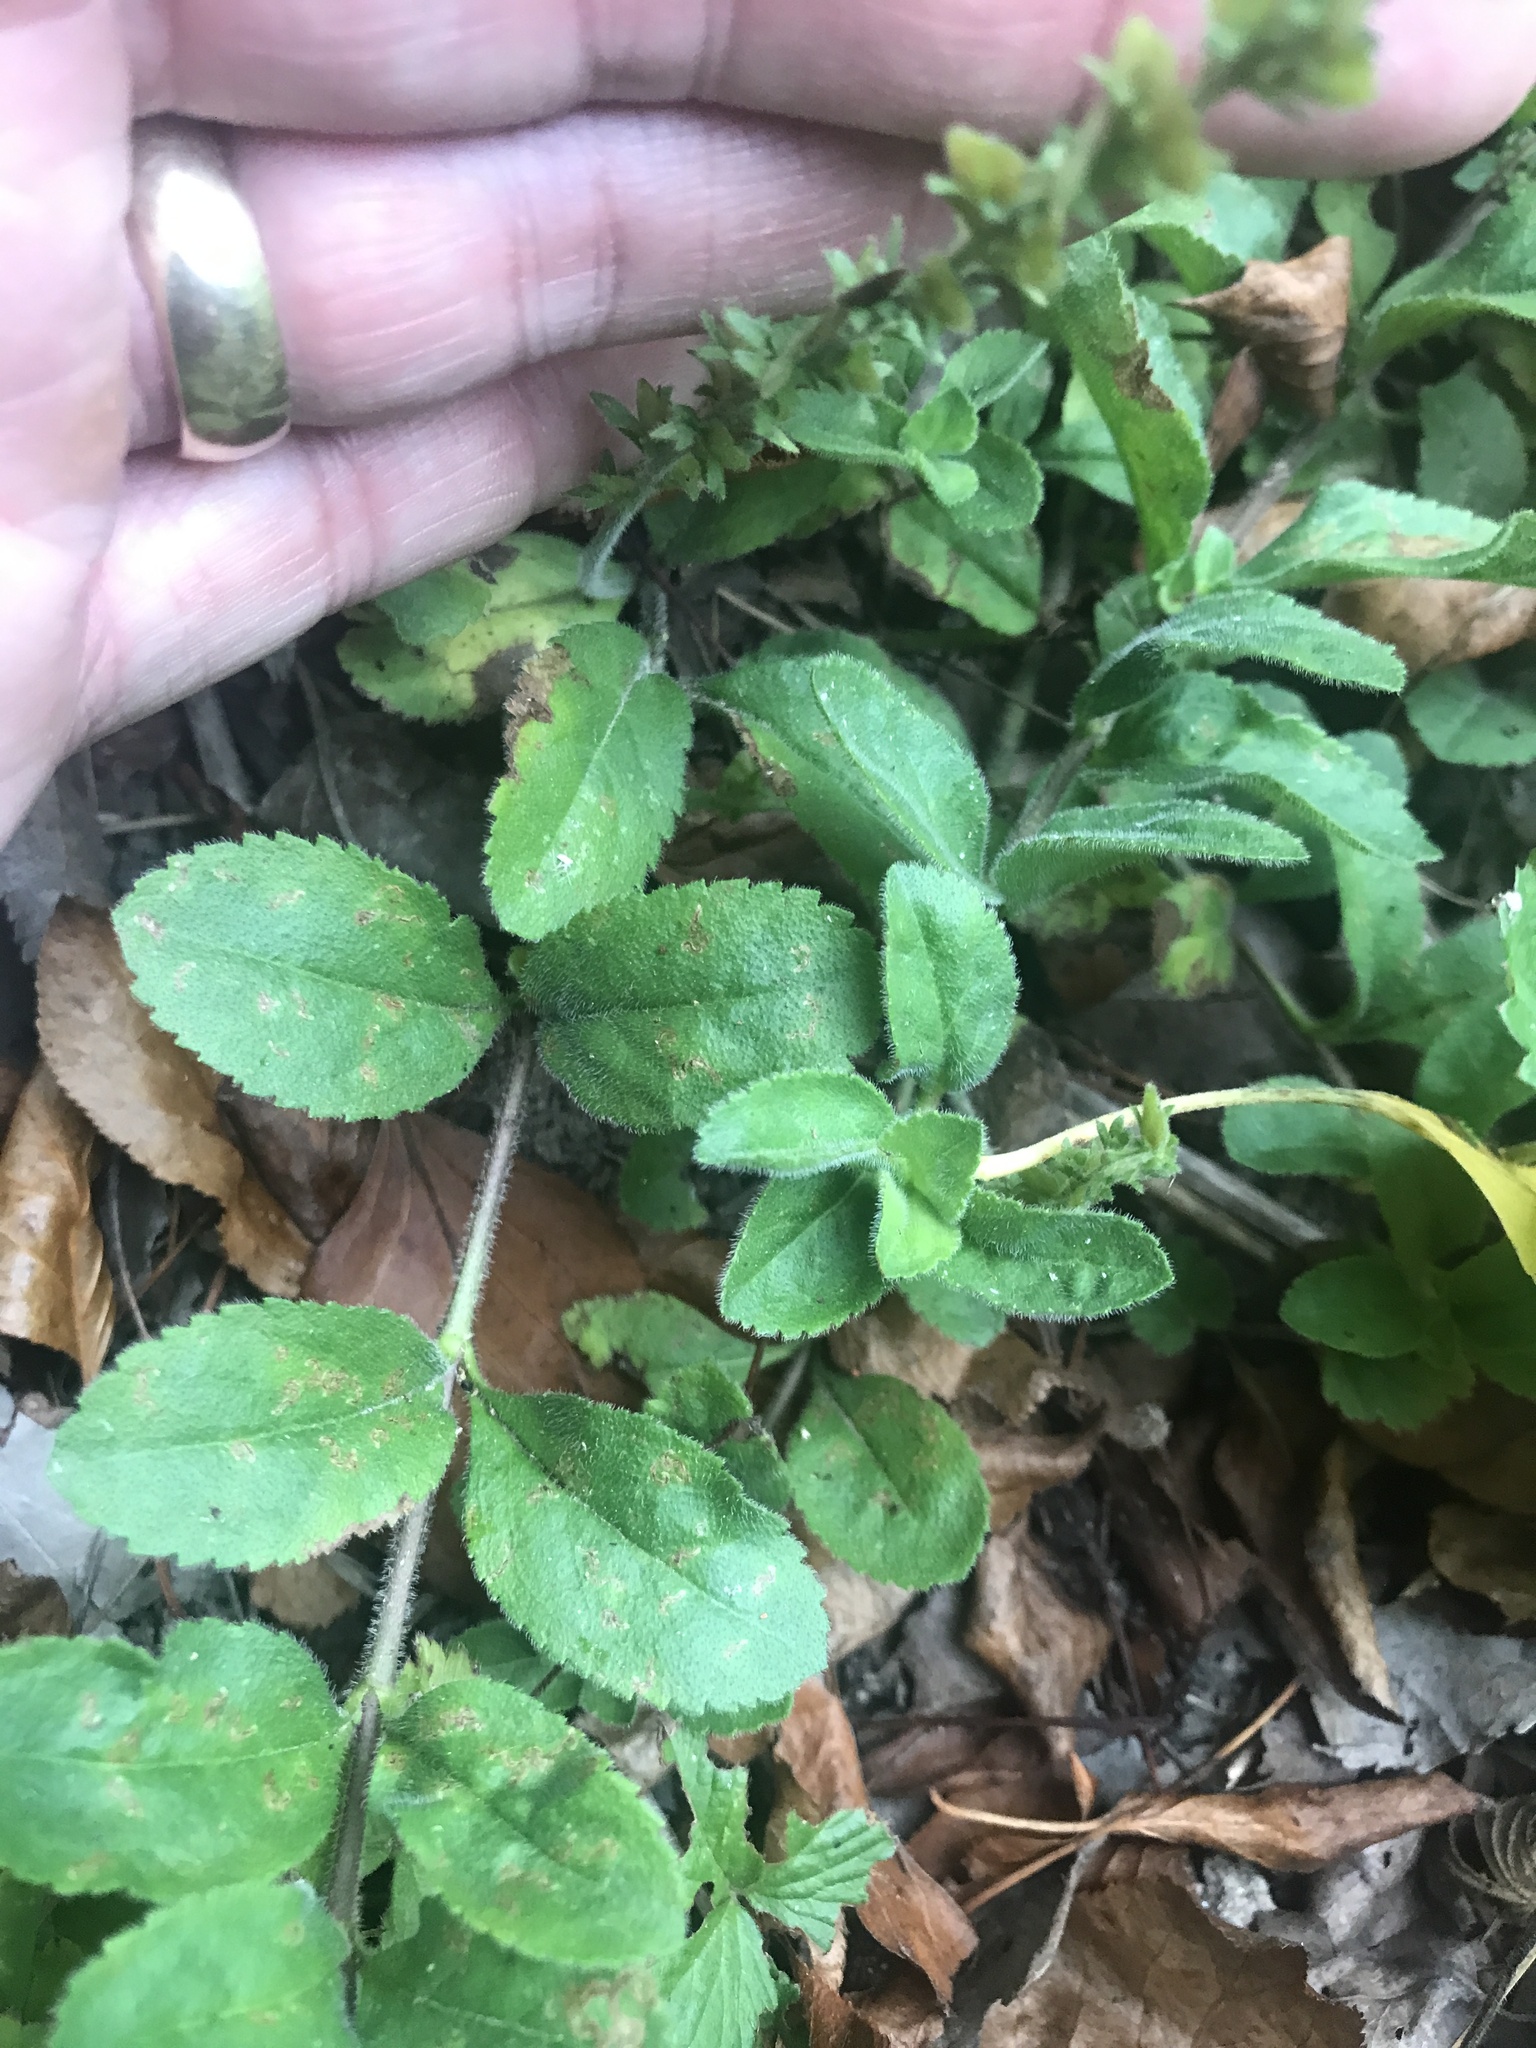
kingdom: Plantae
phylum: Tracheophyta
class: Magnoliopsida
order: Lamiales
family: Plantaginaceae
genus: Veronica
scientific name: Veronica officinalis
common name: Common speedwell
